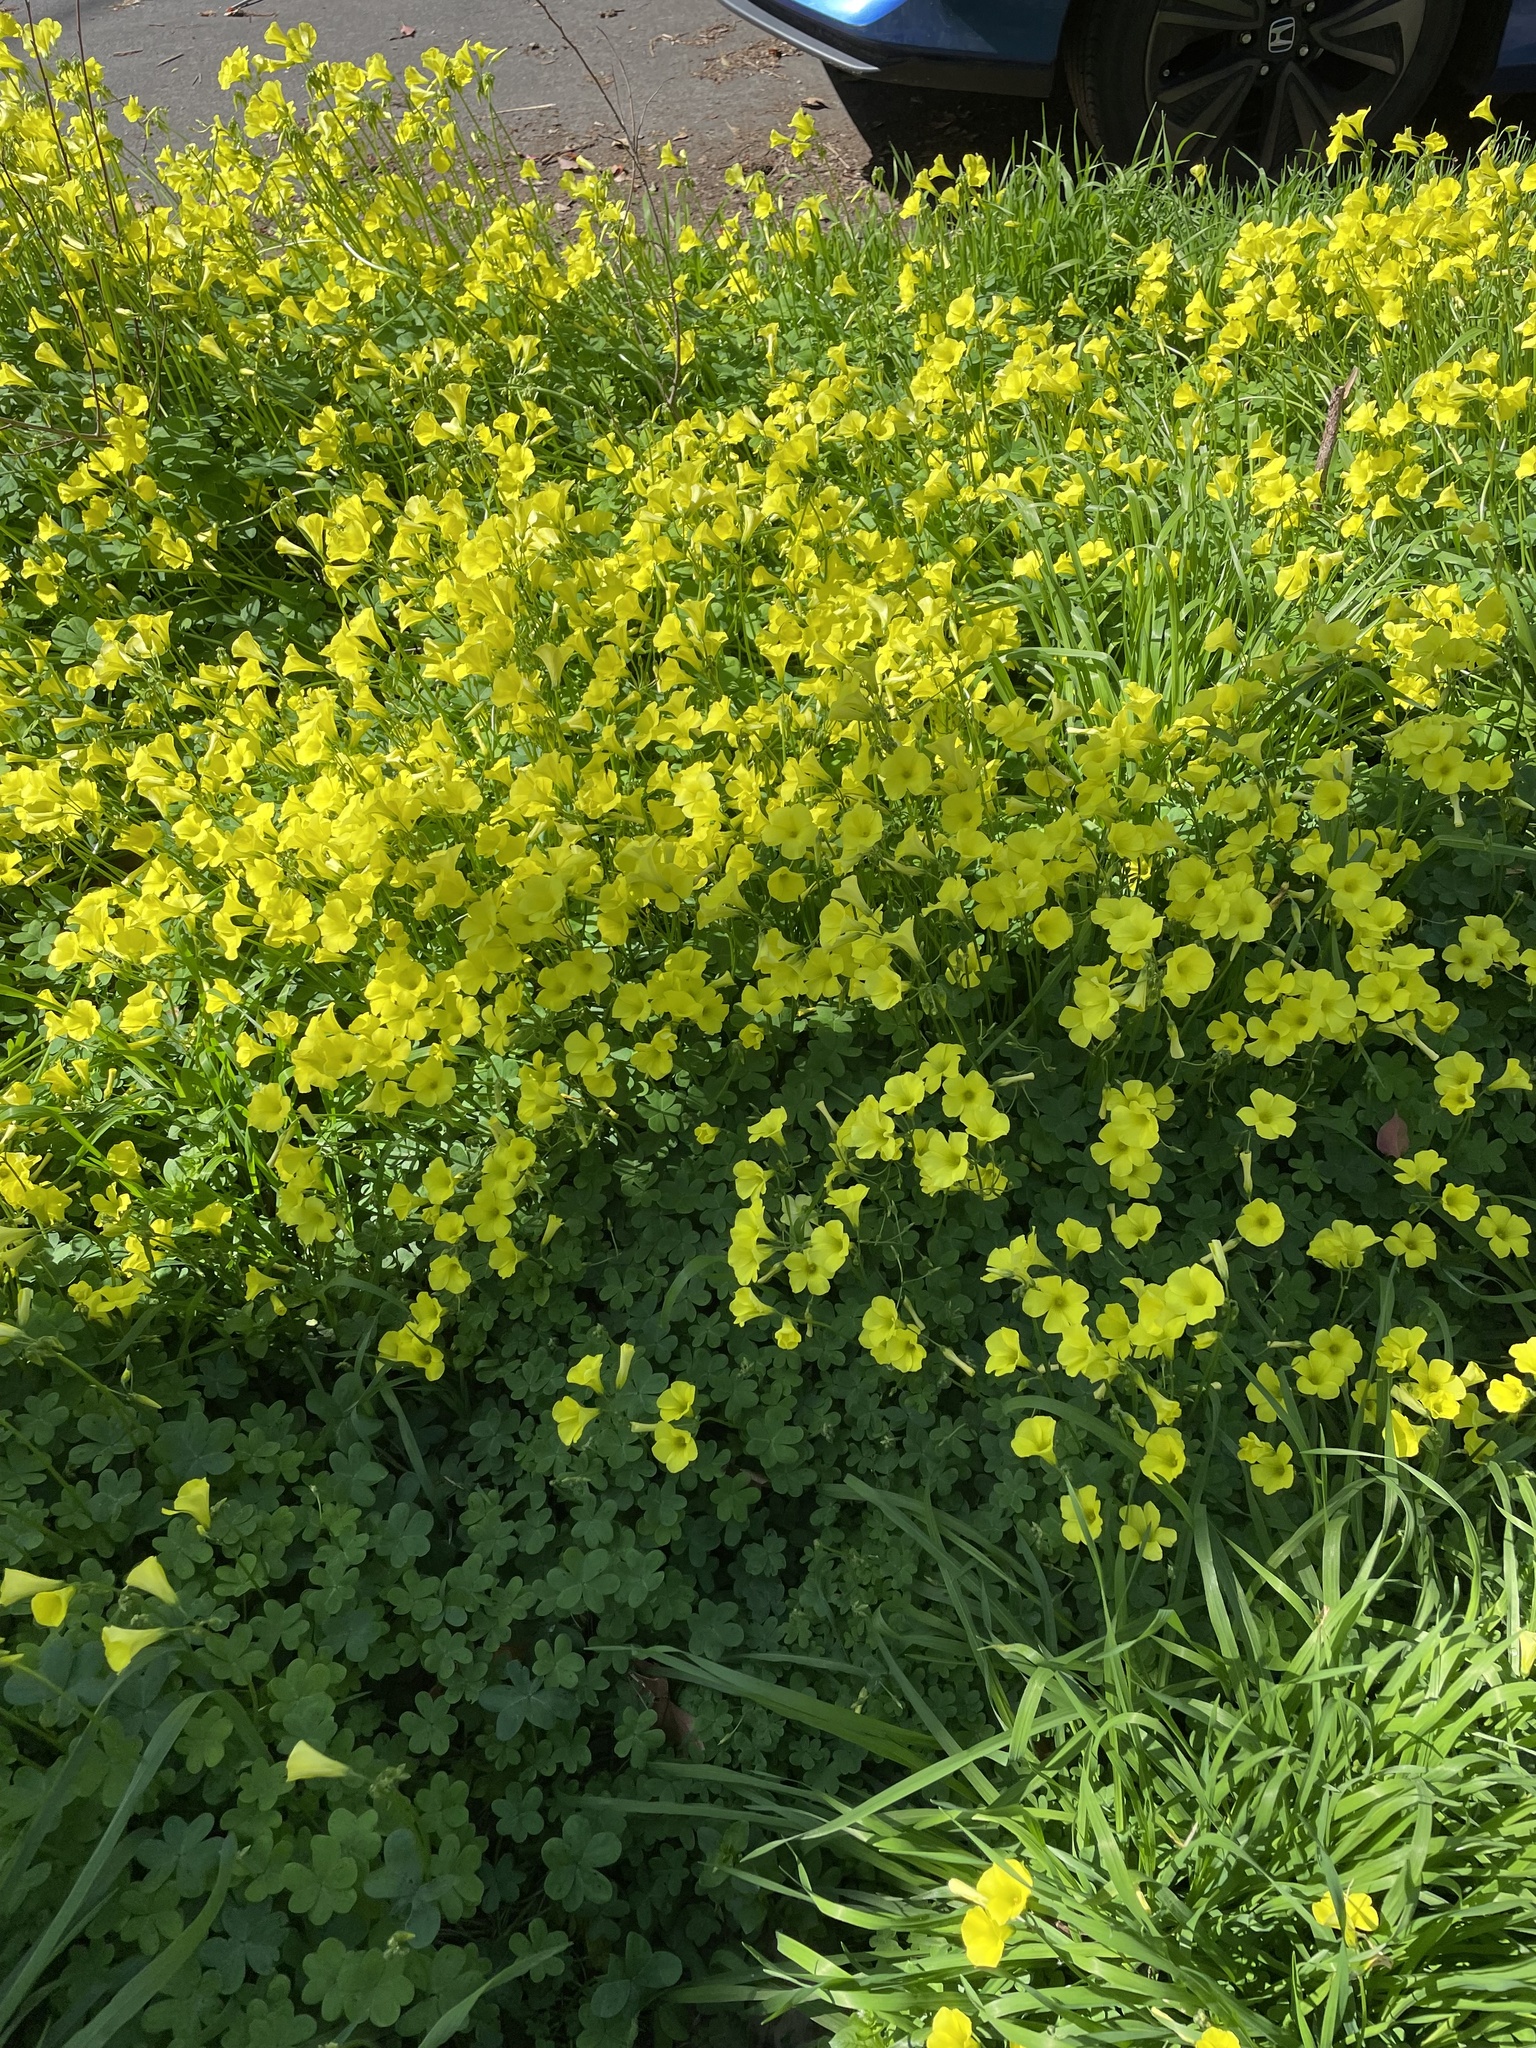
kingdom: Plantae
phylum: Tracheophyta
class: Magnoliopsida
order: Oxalidales
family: Oxalidaceae
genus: Oxalis
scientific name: Oxalis pes-caprae
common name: Bermuda-buttercup
